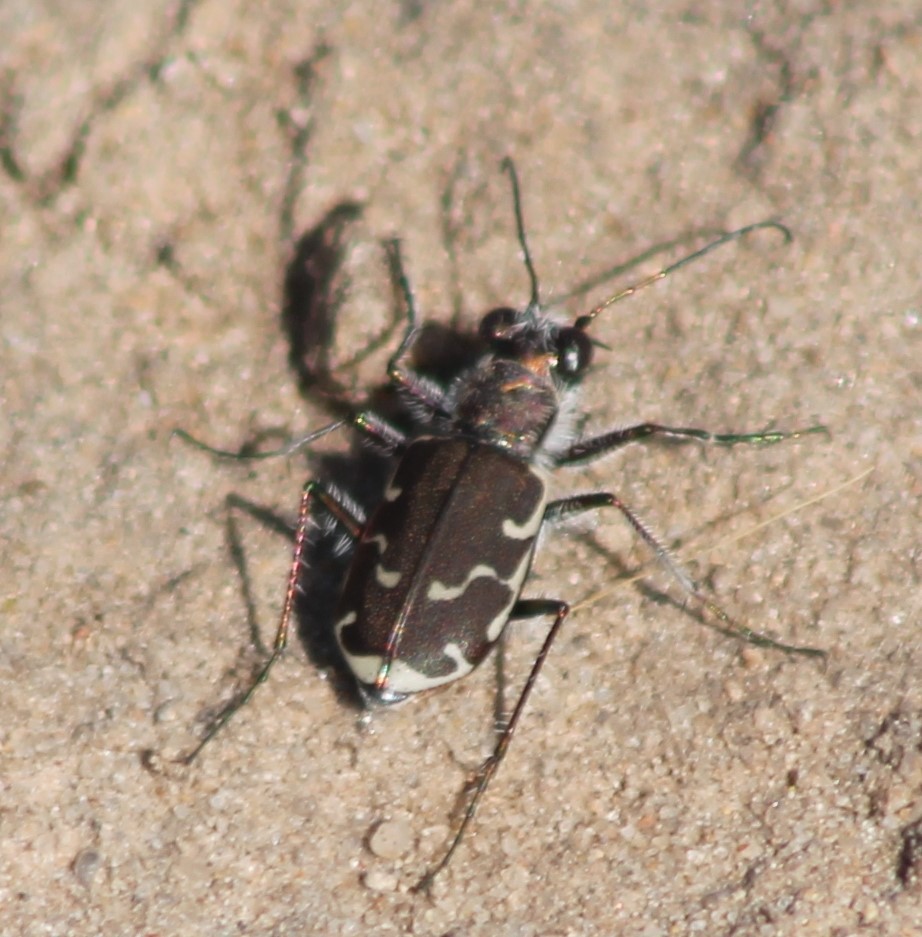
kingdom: Animalia
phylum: Arthropoda
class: Insecta
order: Coleoptera
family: Carabidae
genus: Cicindela
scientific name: Cicindela repanda
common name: Bronzed tiger beetle
